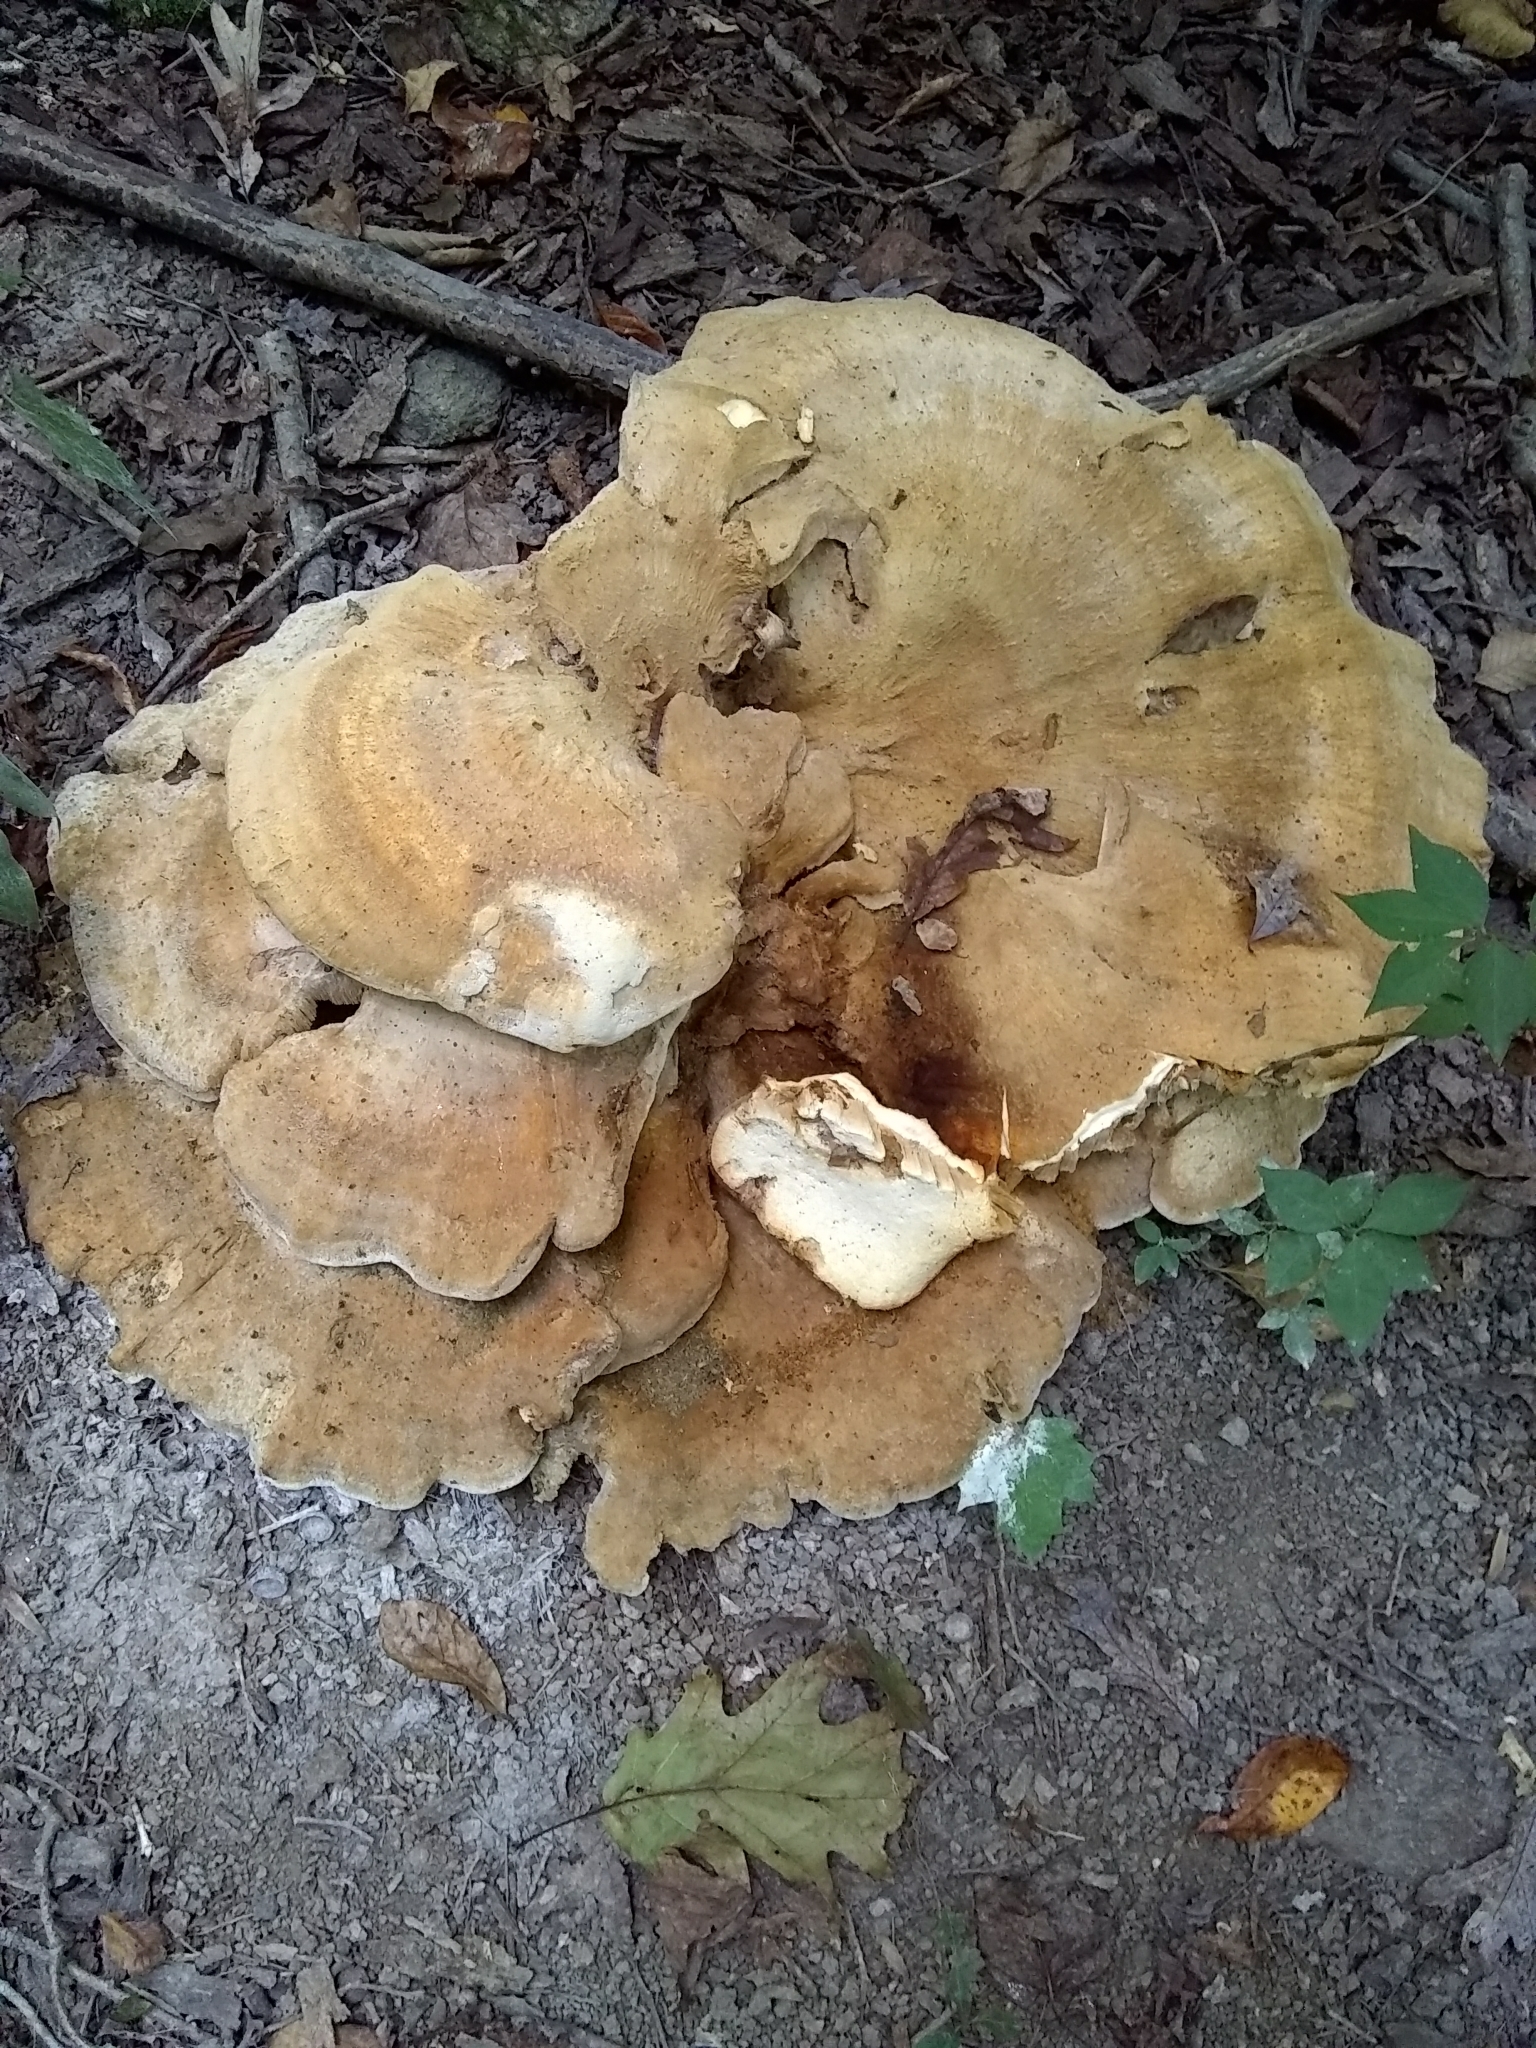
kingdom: Fungi
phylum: Basidiomycota
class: Agaricomycetes
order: Russulales
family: Bondarzewiaceae
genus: Bondarzewia
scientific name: Bondarzewia berkeleyi
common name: Berkeley's polypore
